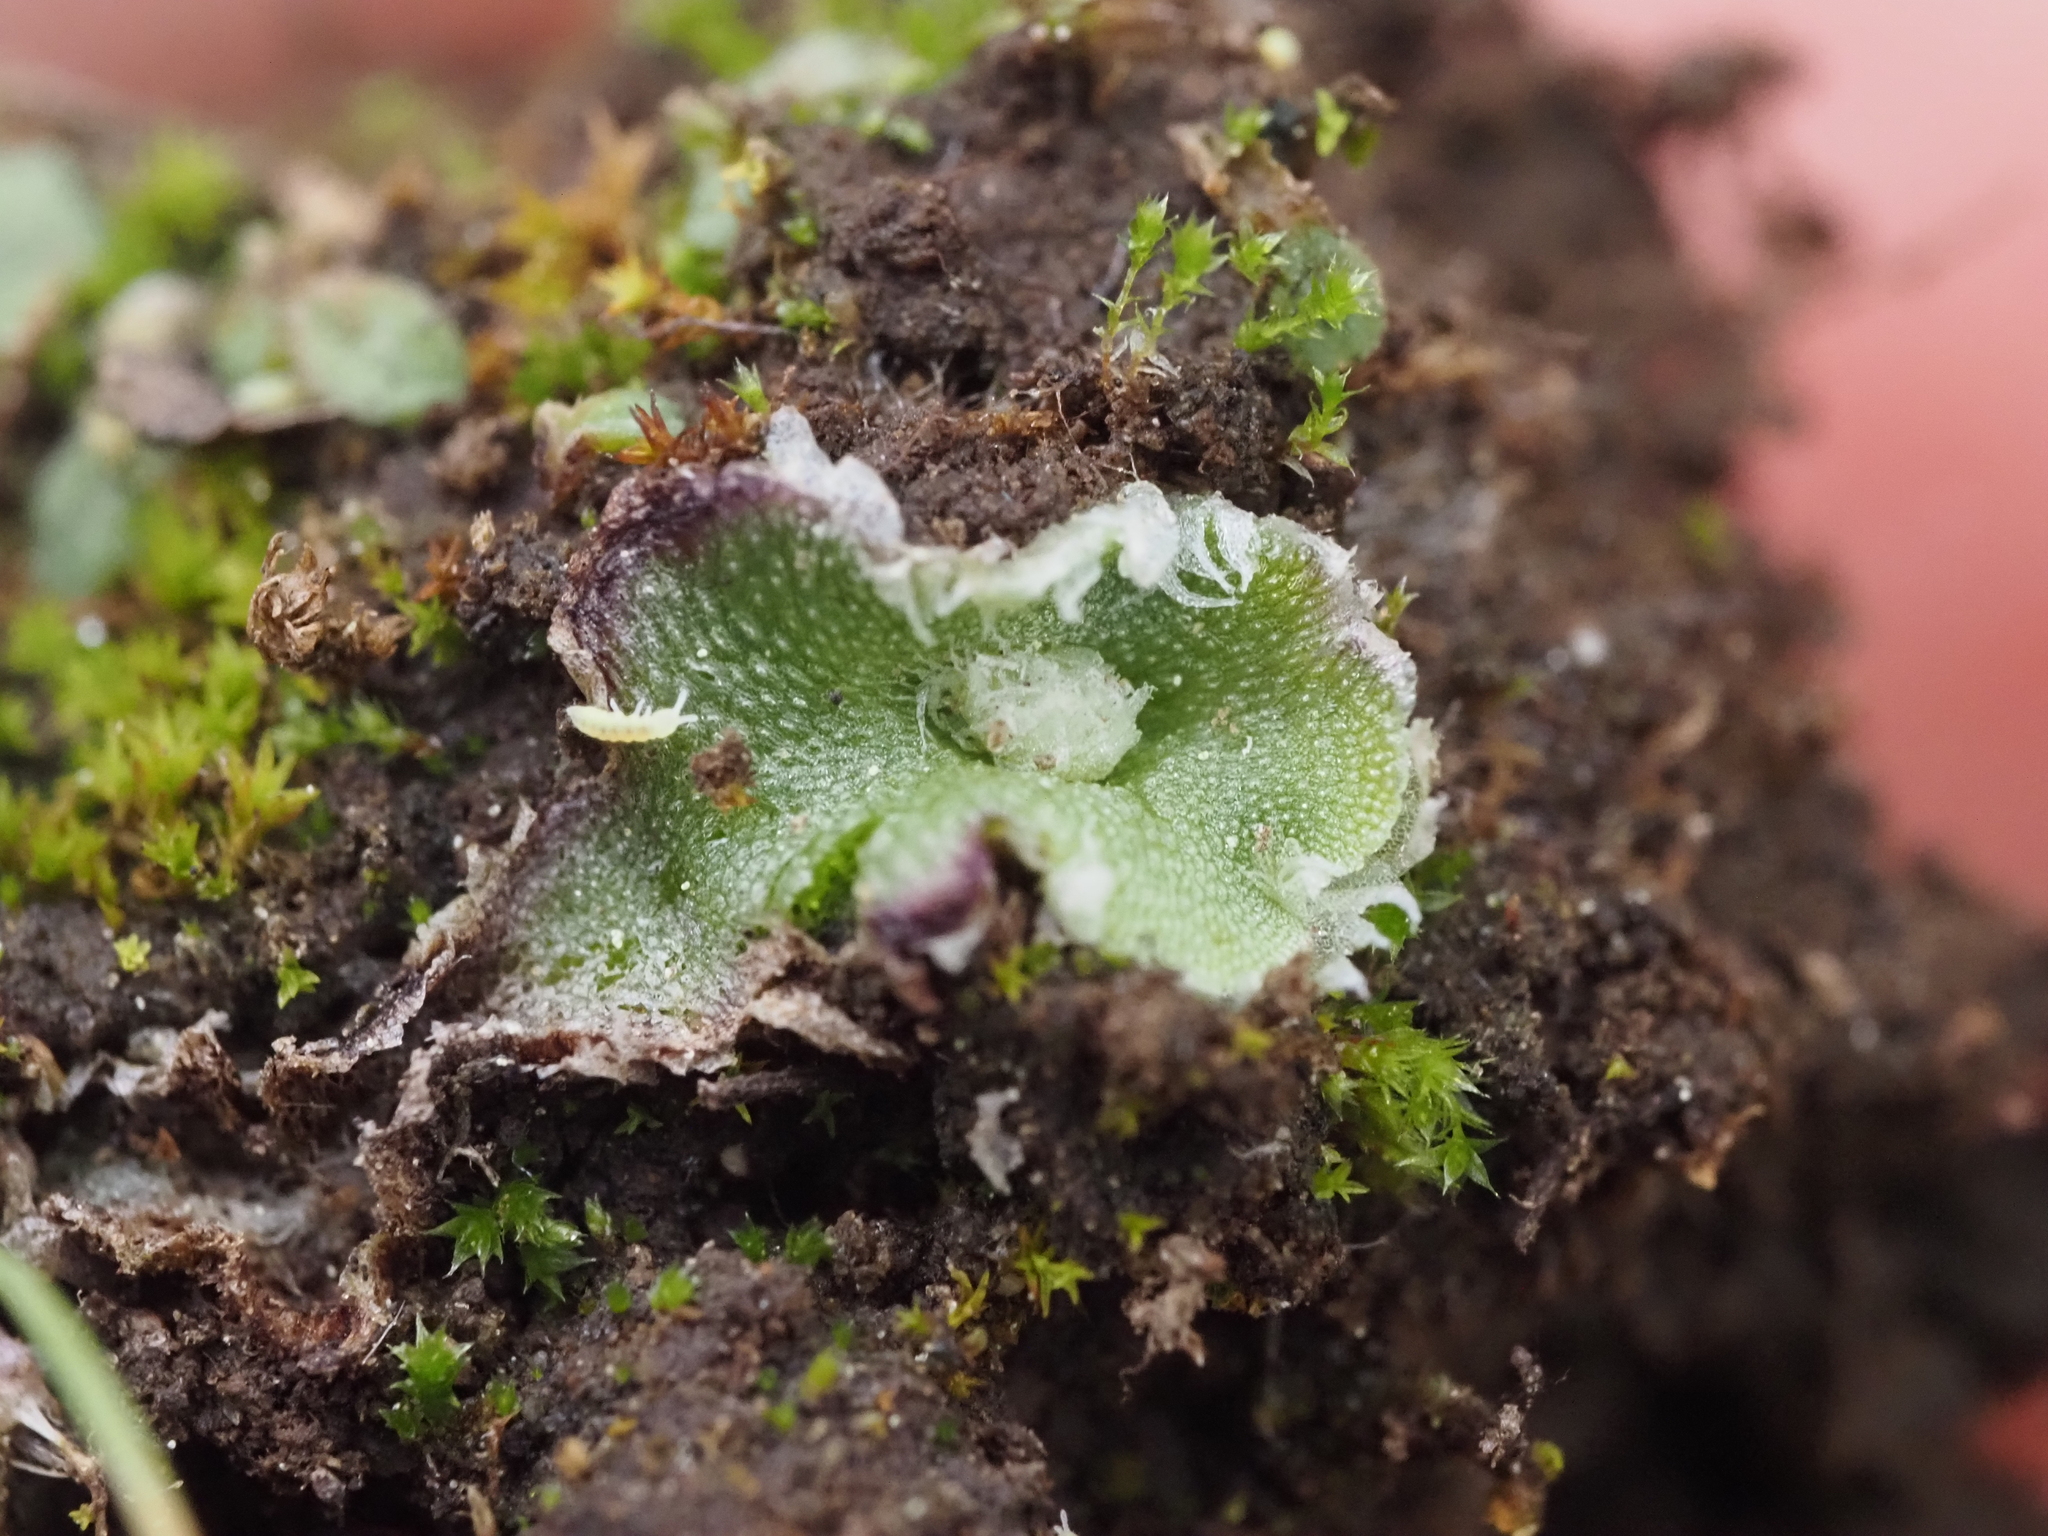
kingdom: Plantae
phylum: Marchantiophyta
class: Marchantiopsida
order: Marchantiales
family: Cleveaceae
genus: Clevea
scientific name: Clevea hyalina
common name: Hyaline liverwort
